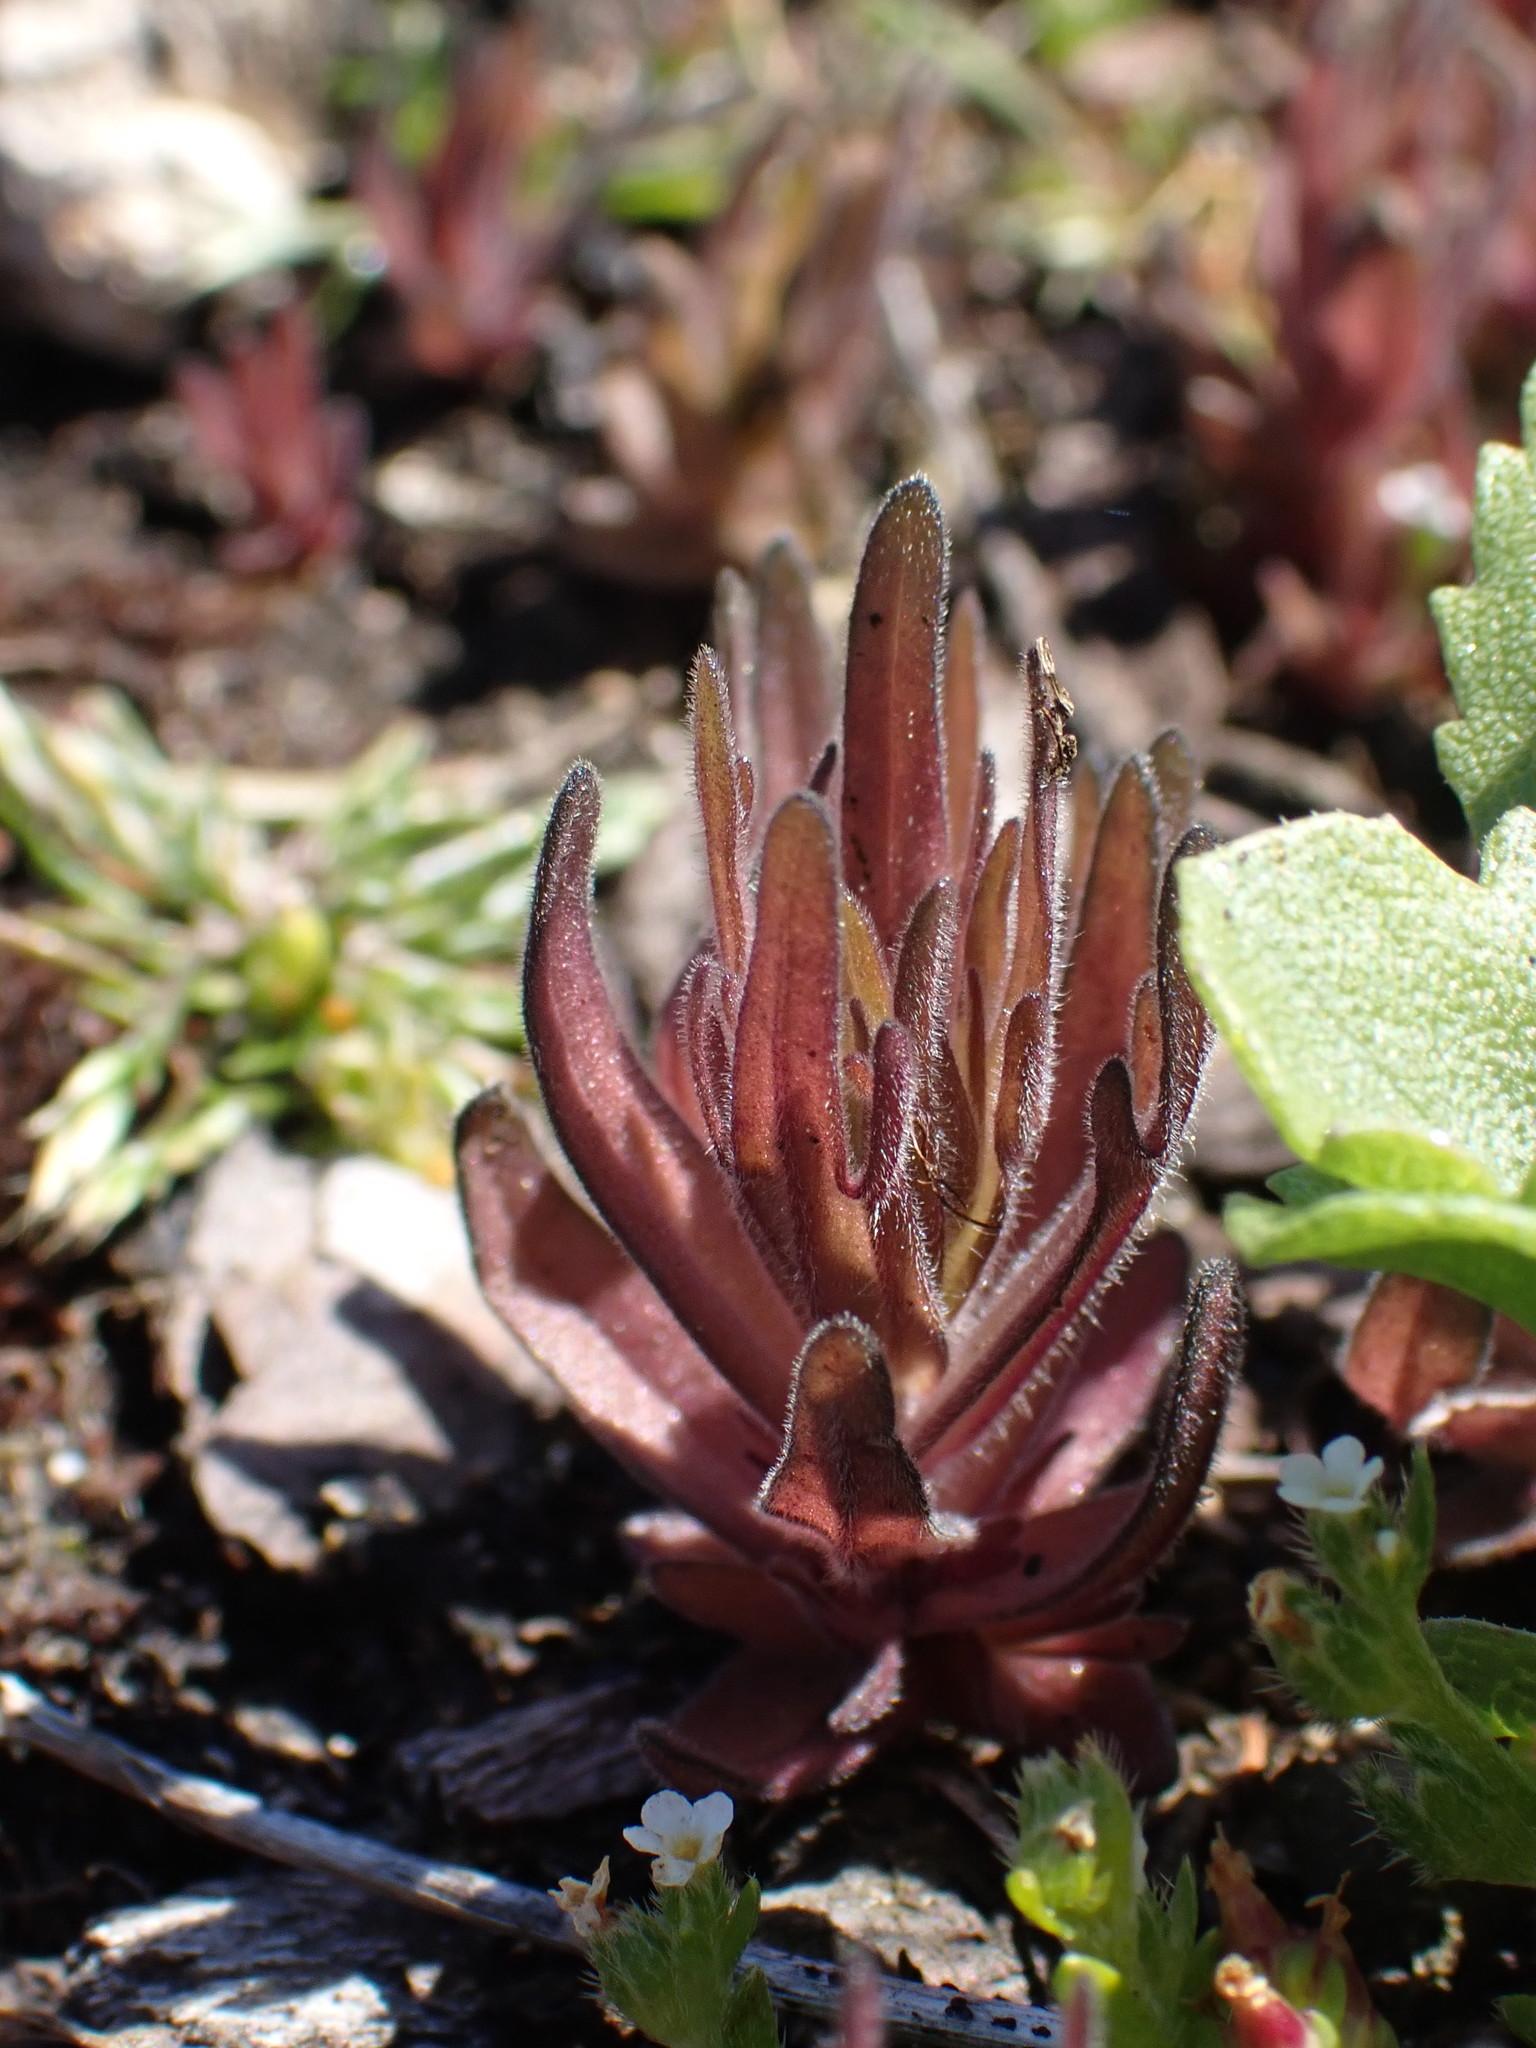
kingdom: Plantae
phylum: Tracheophyta
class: Magnoliopsida
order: Lamiales
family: Orobanchaceae
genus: Castilleja
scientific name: Castilleja victoriae
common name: Victoria paintbrush
